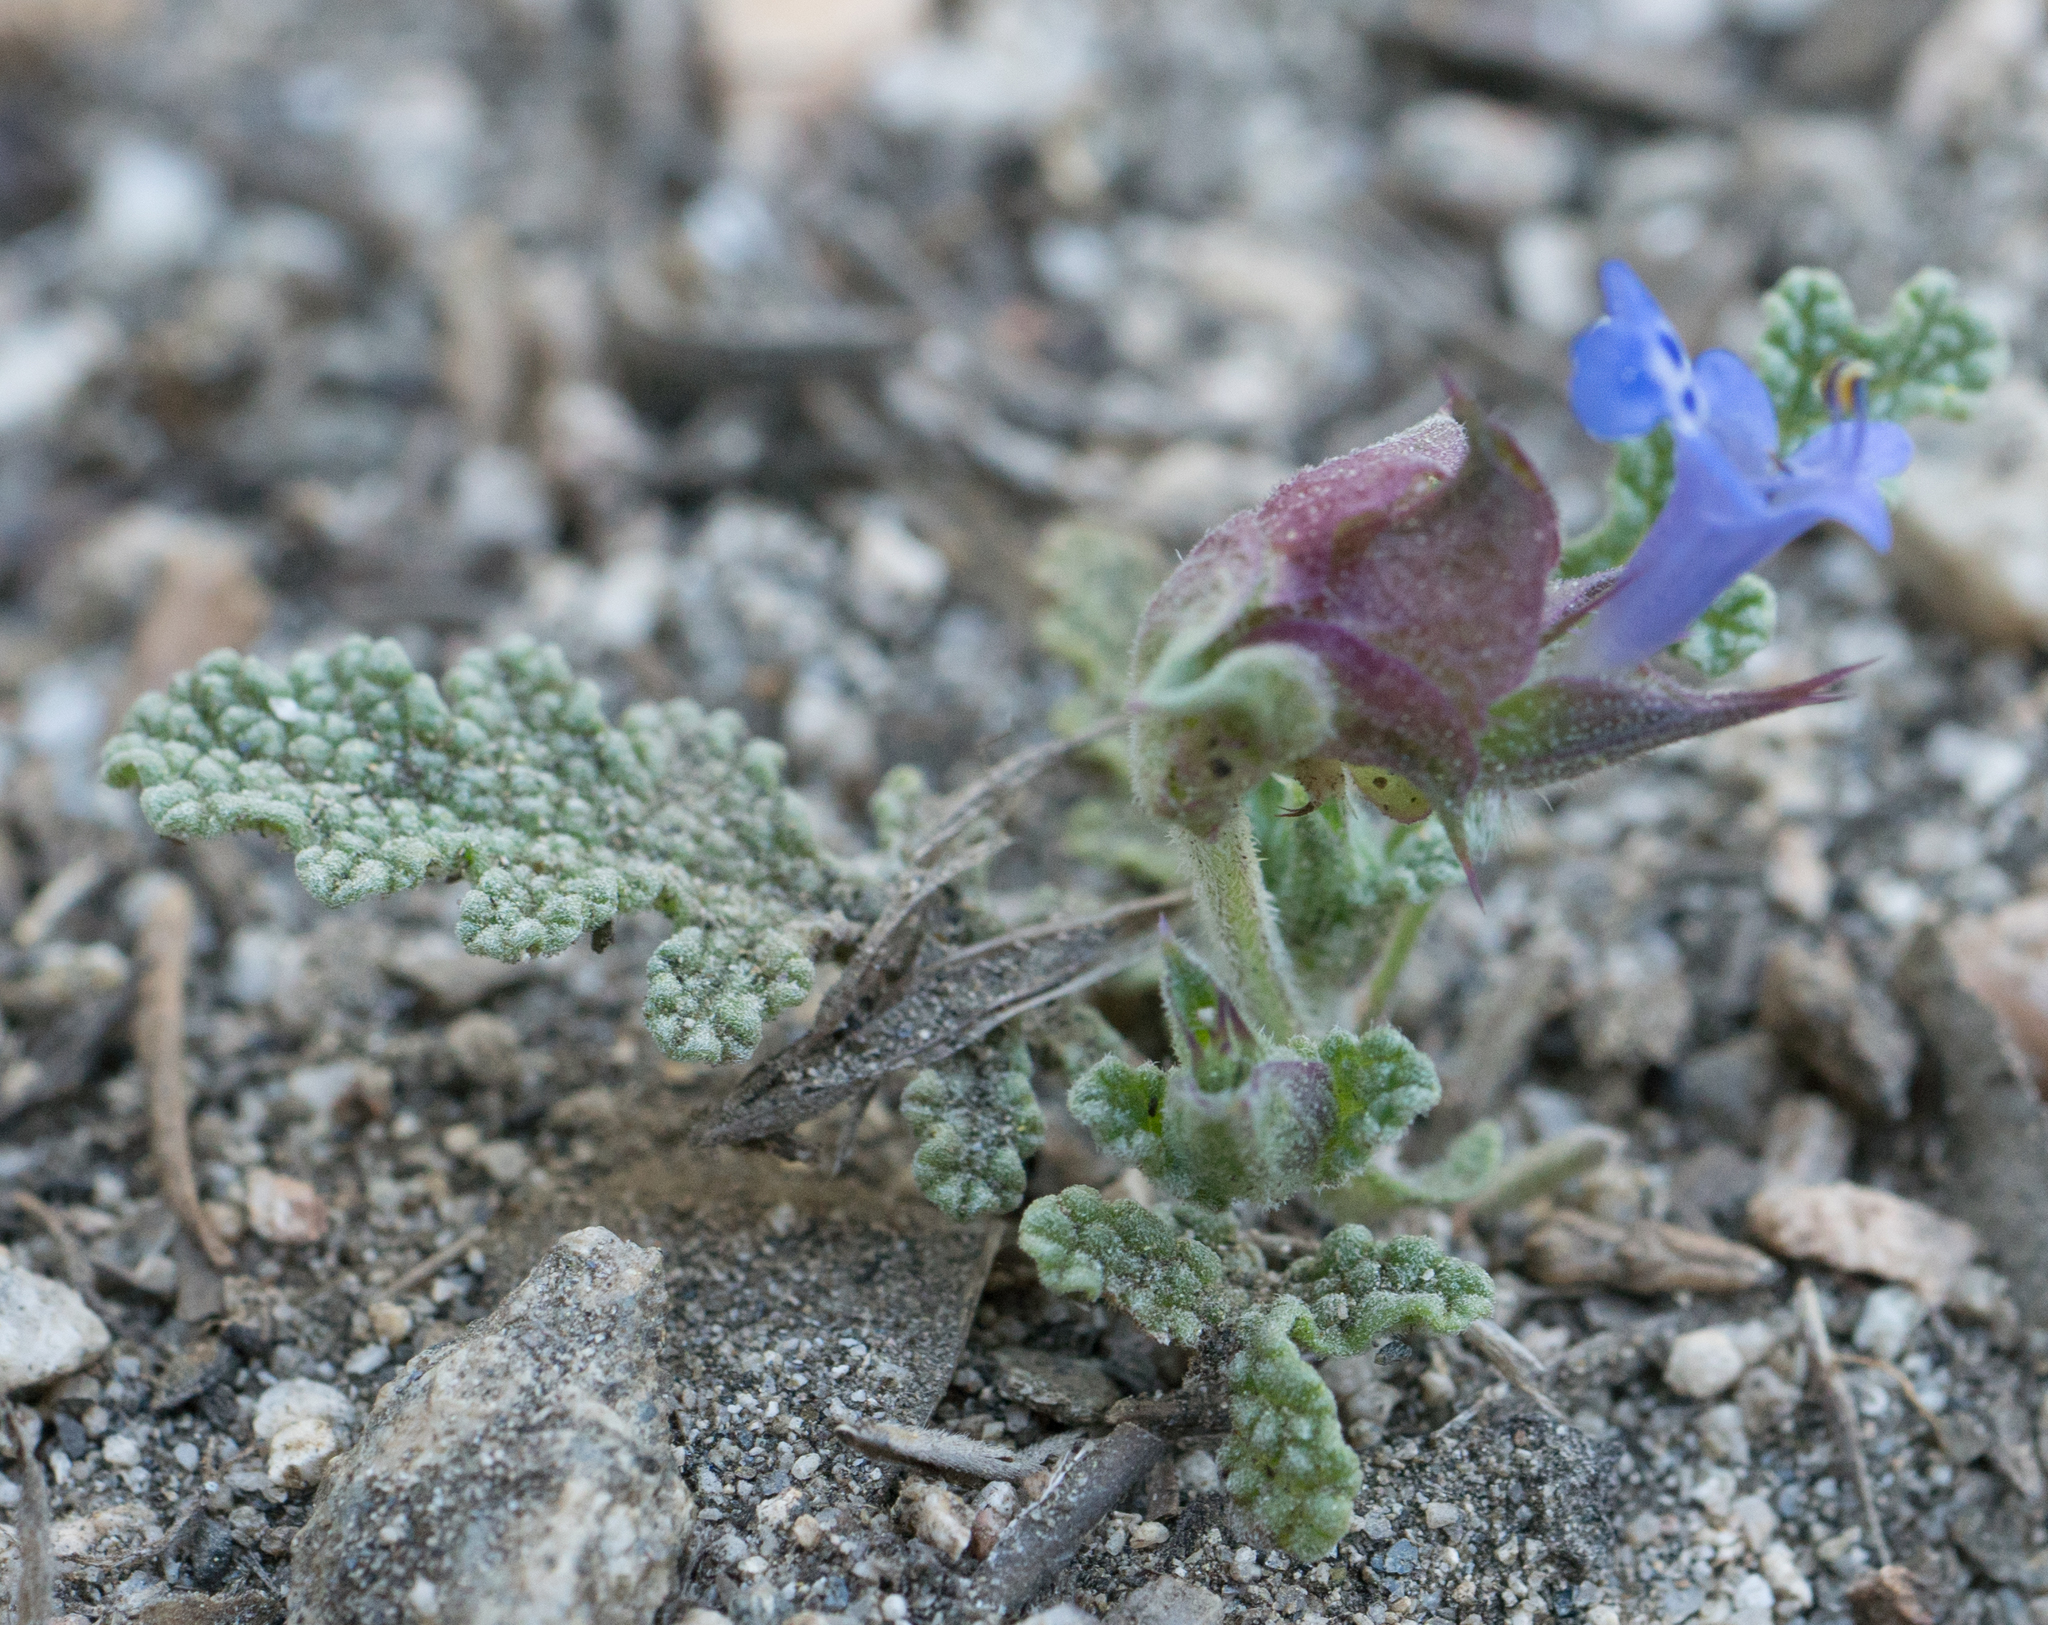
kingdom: Plantae
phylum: Tracheophyta
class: Magnoliopsida
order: Lamiales
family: Lamiaceae
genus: Salvia
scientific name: Salvia columbariae
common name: Chia
